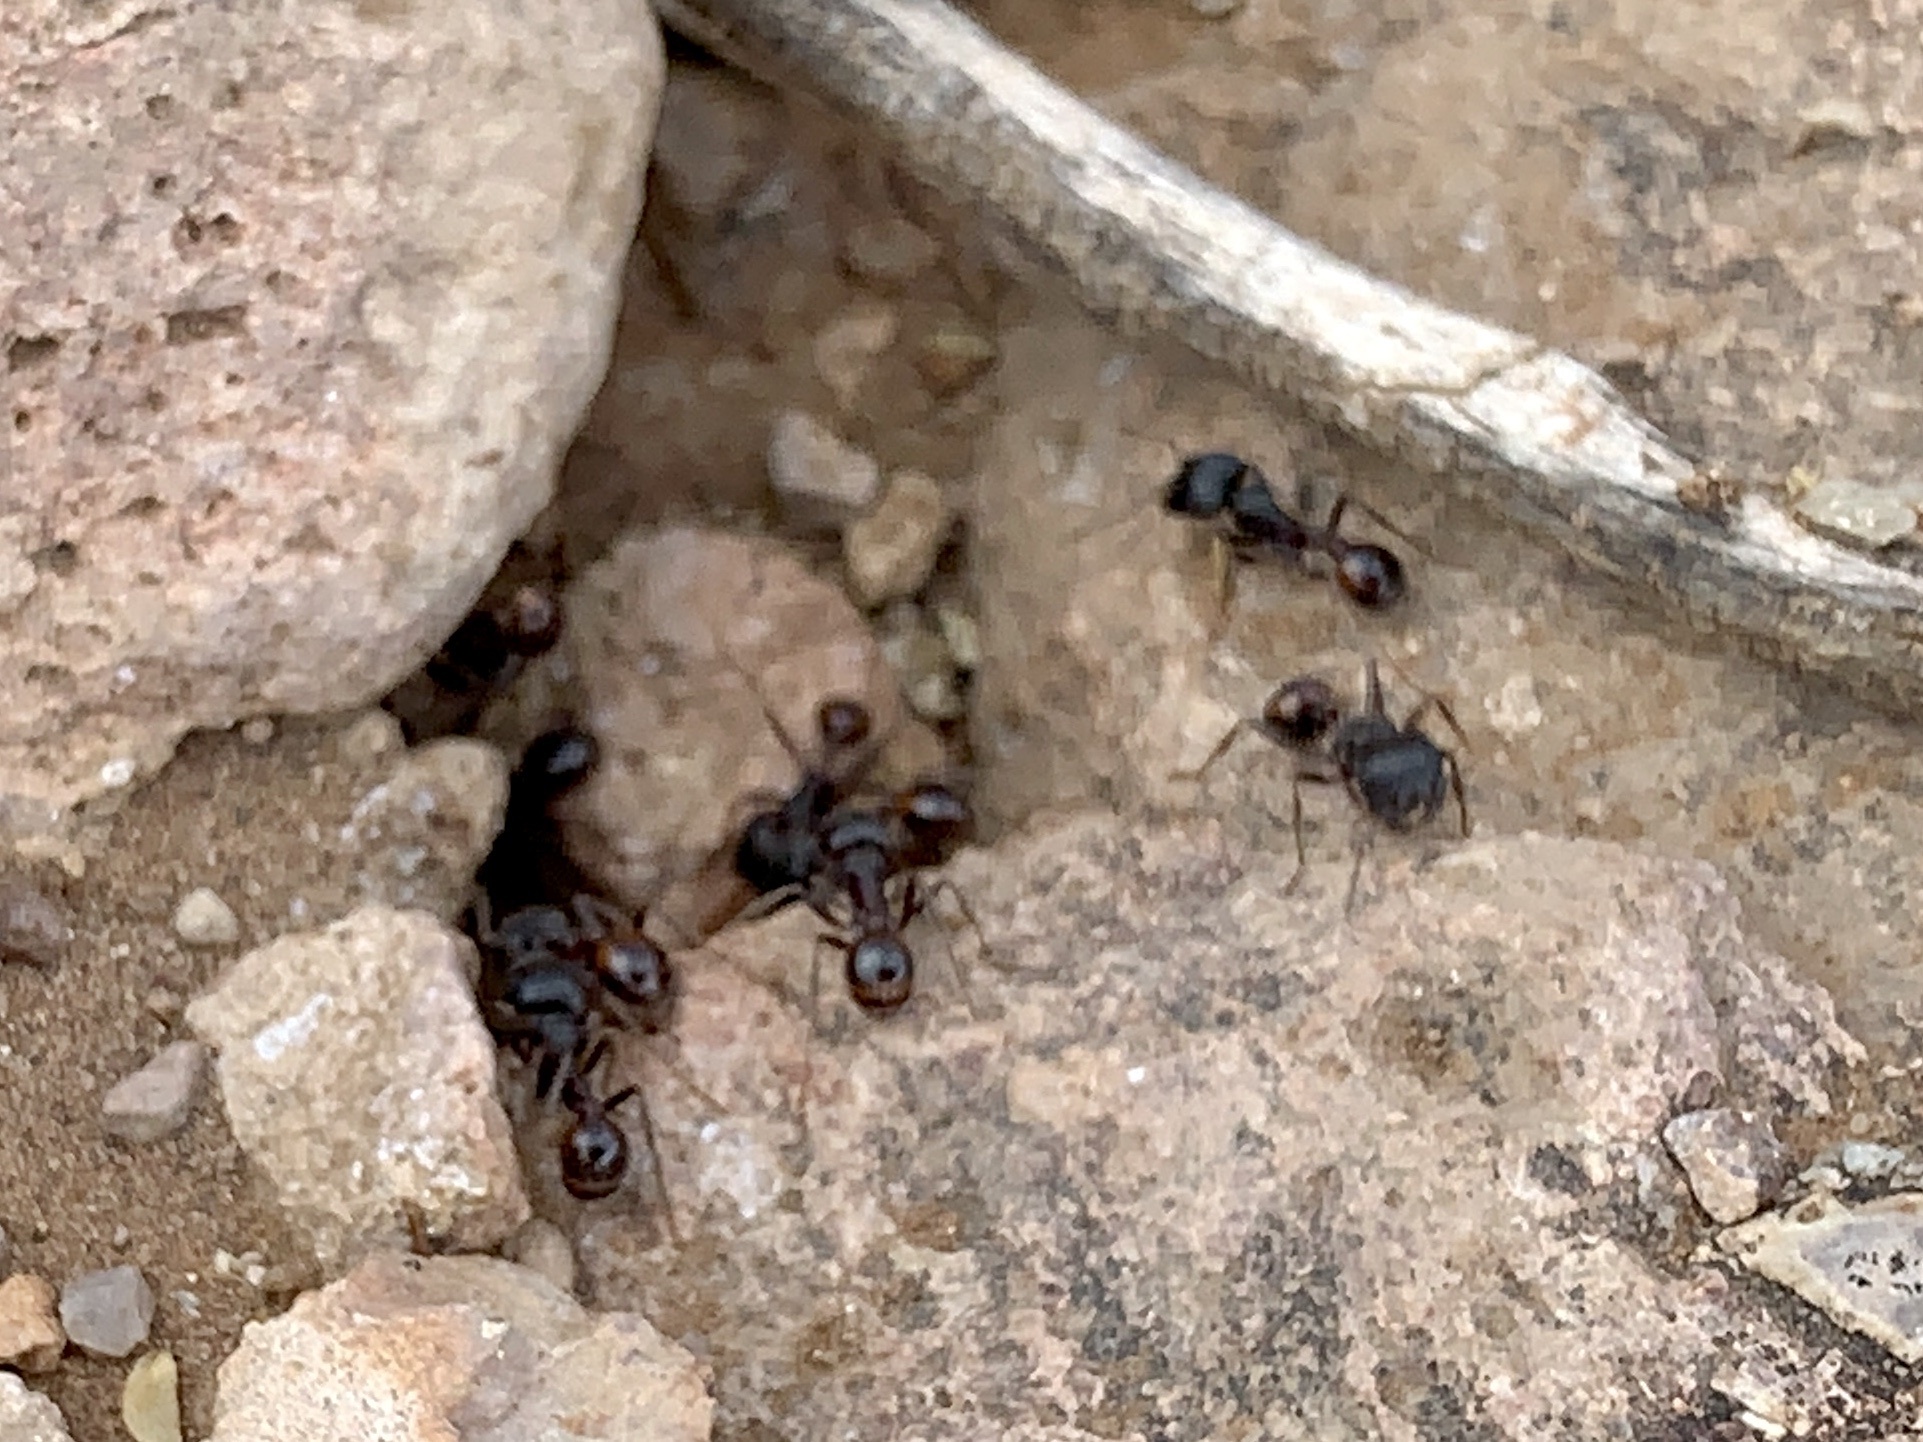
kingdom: Animalia
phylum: Arthropoda
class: Insecta
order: Hymenoptera
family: Formicidae
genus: Pogonomyrmex
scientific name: Pogonomyrmex rugosus
